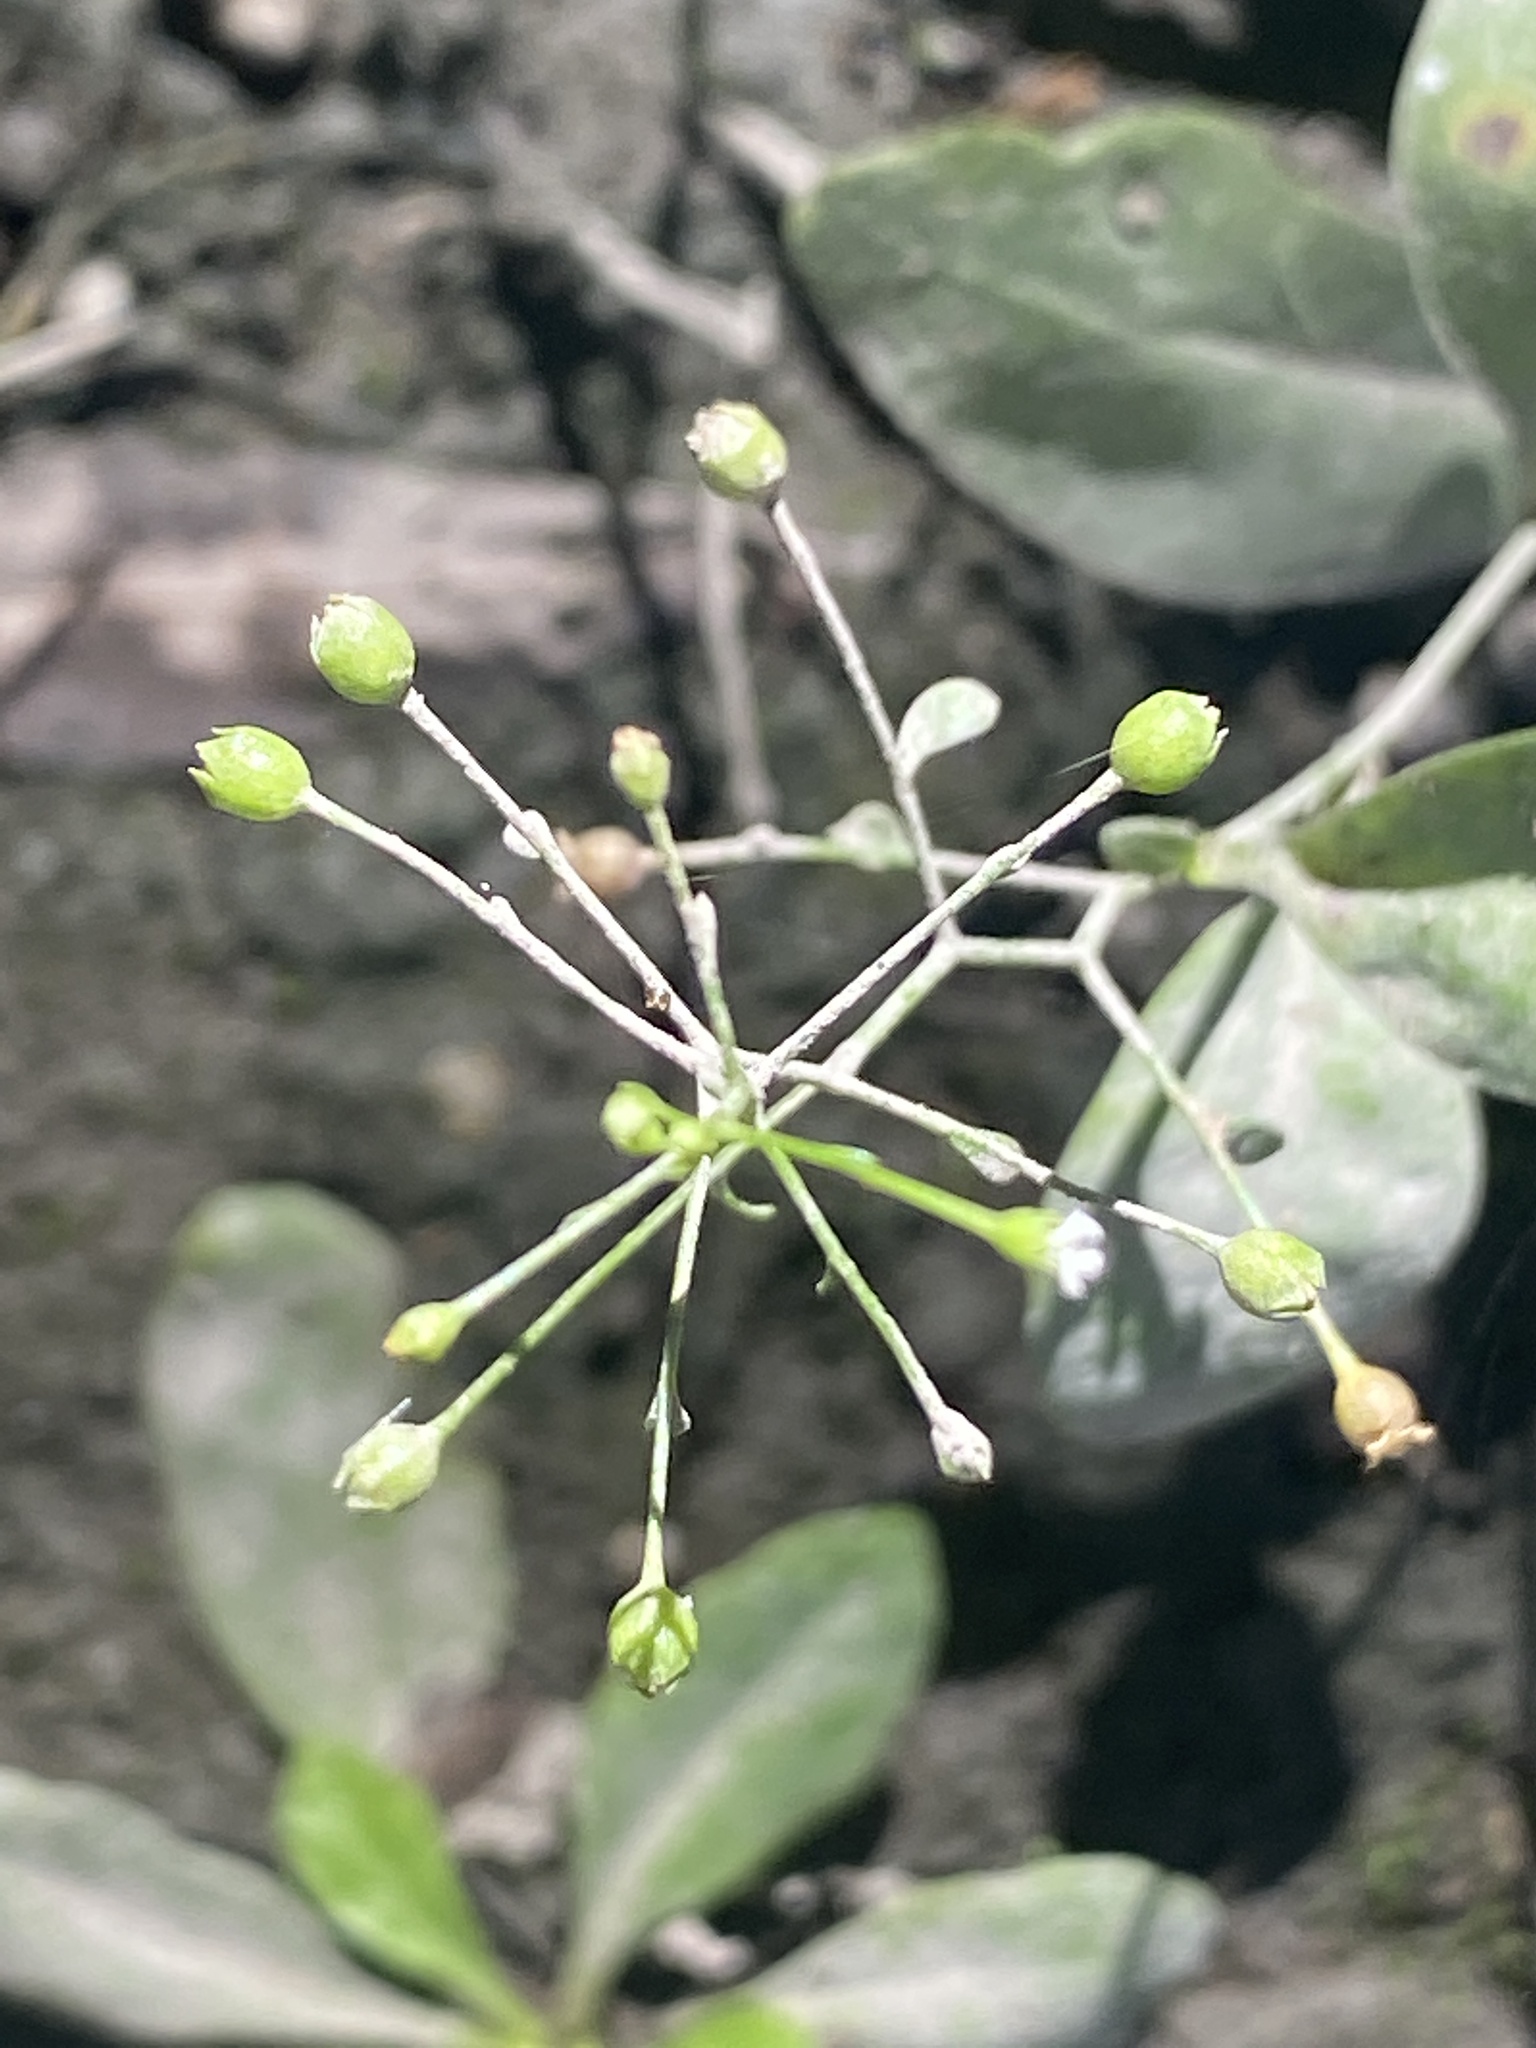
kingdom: Plantae
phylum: Tracheophyta
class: Magnoliopsida
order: Ericales
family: Primulaceae
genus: Samolus
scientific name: Samolus parviflorus
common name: False water pimpernel
